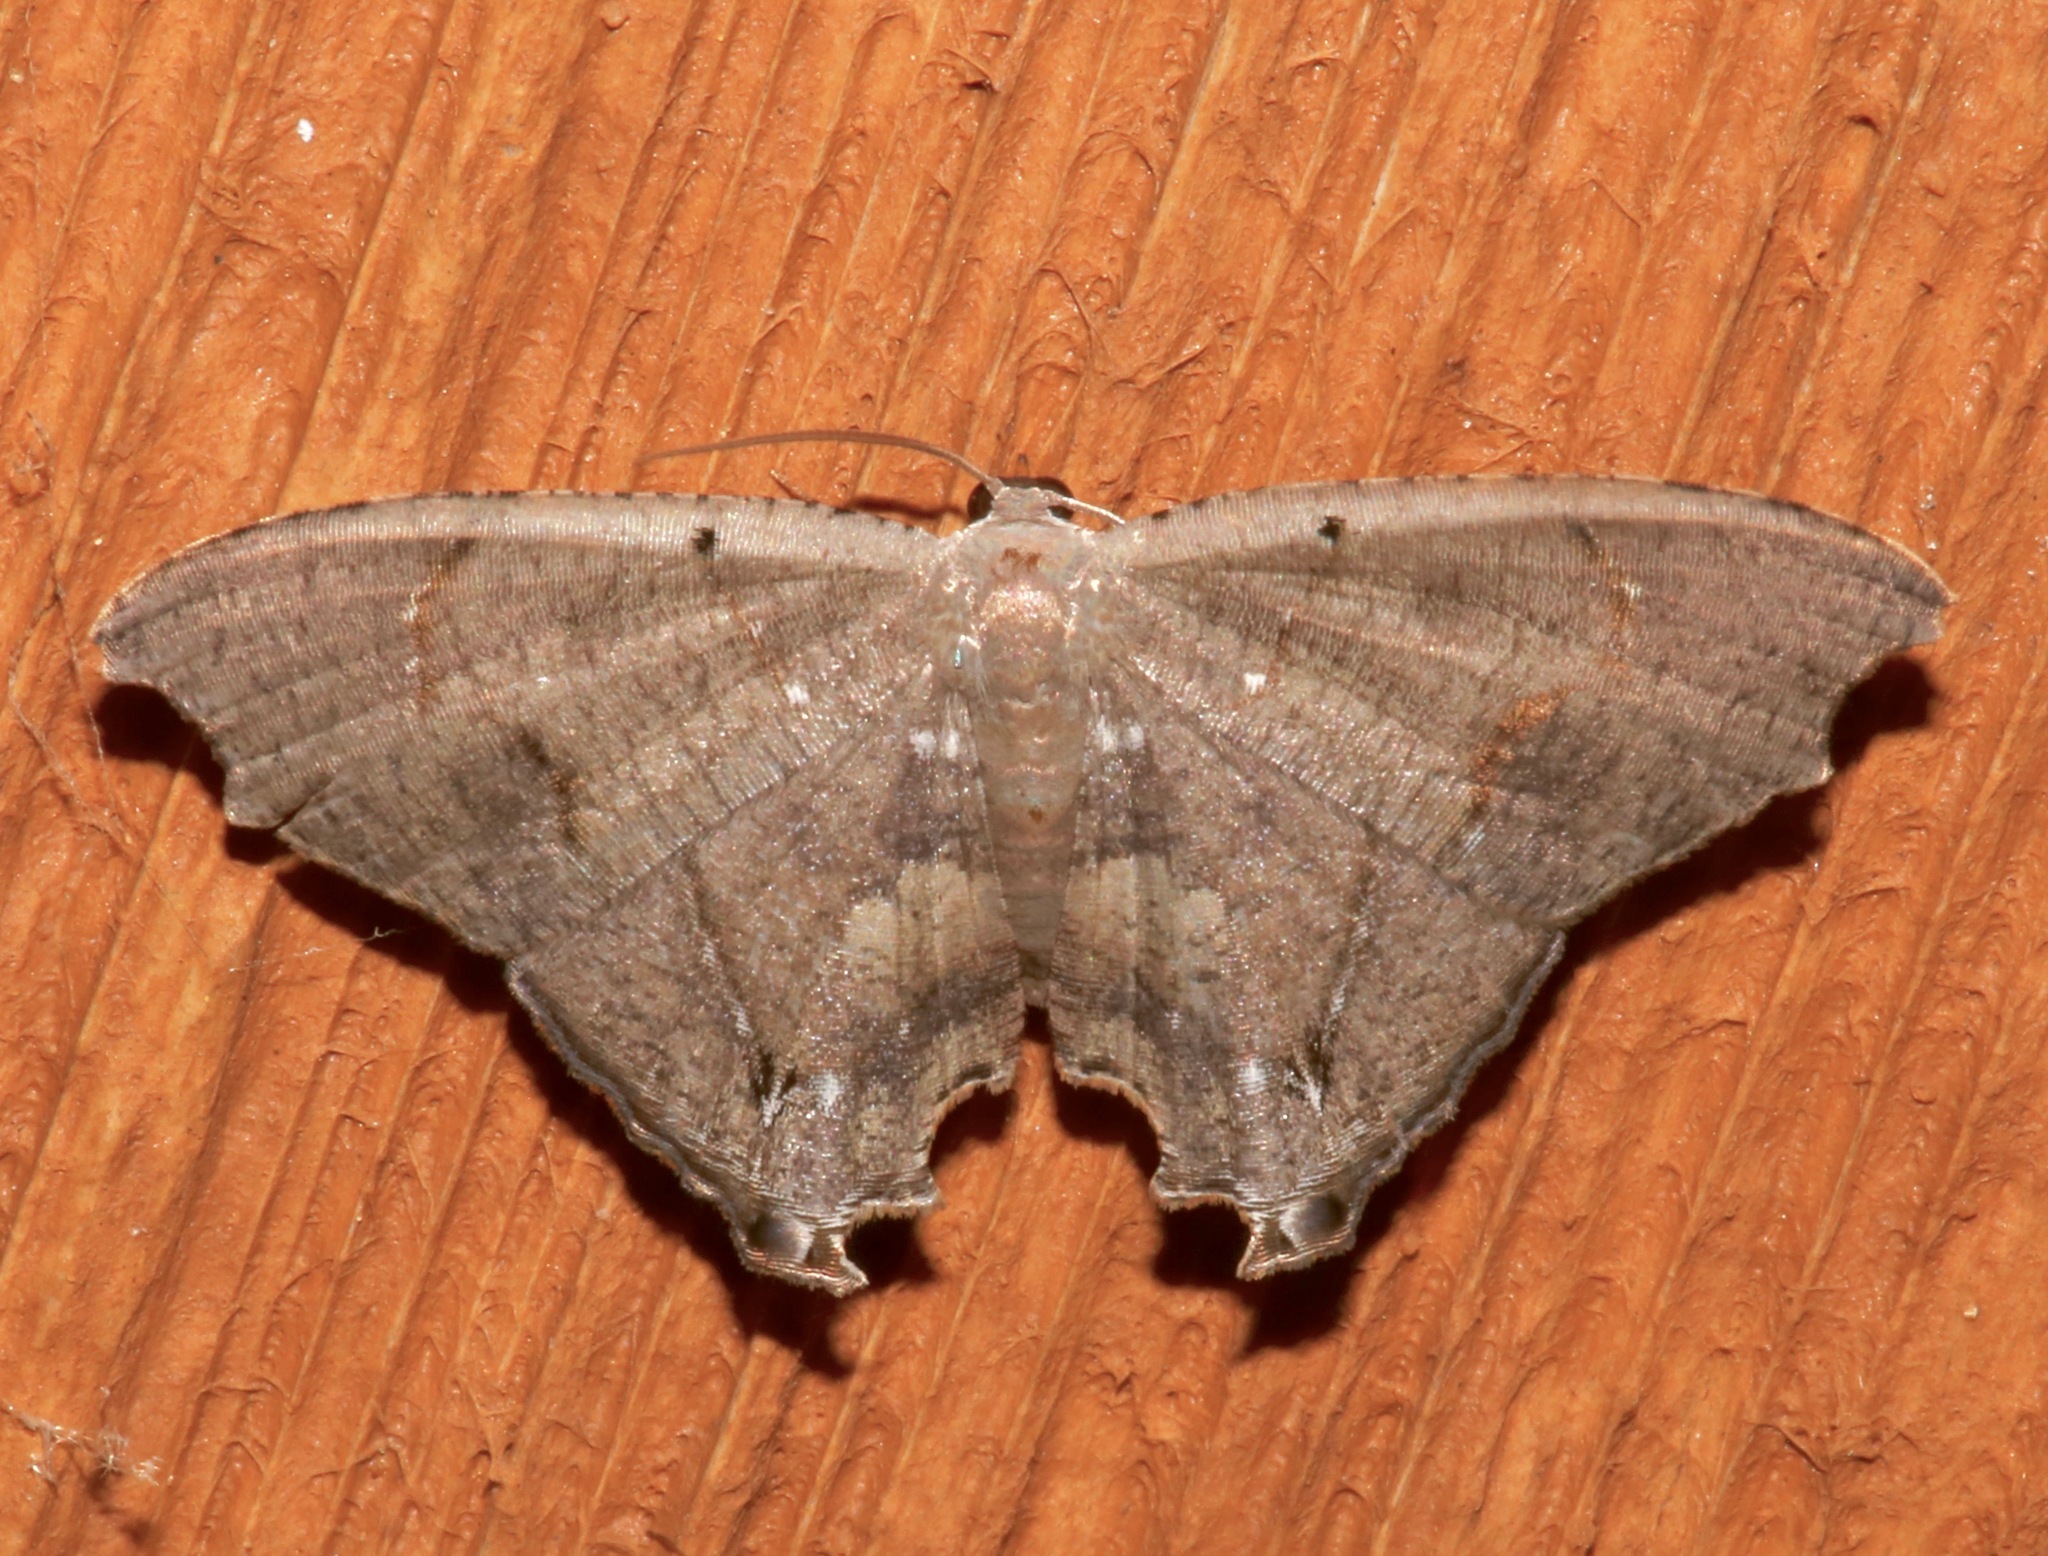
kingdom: Animalia
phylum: Arthropoda
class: Insecta
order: Lepidoptera
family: Uraniidae
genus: Trotorhombia
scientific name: Trotorhombia metachromata
